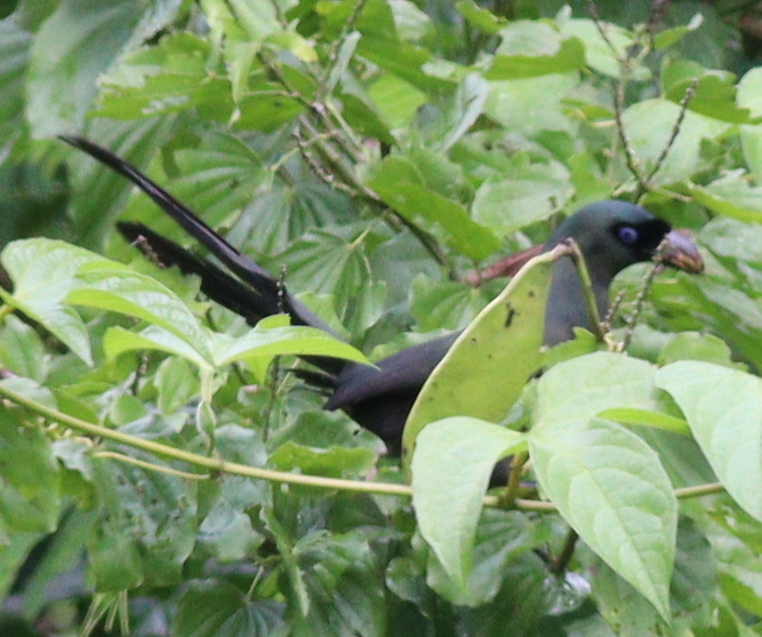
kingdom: Animalia
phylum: Chordata
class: Aves
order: Passeriformes
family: Corvidae
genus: Crypsirina
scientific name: Crypsirina temia
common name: Racket-tailed treepie
